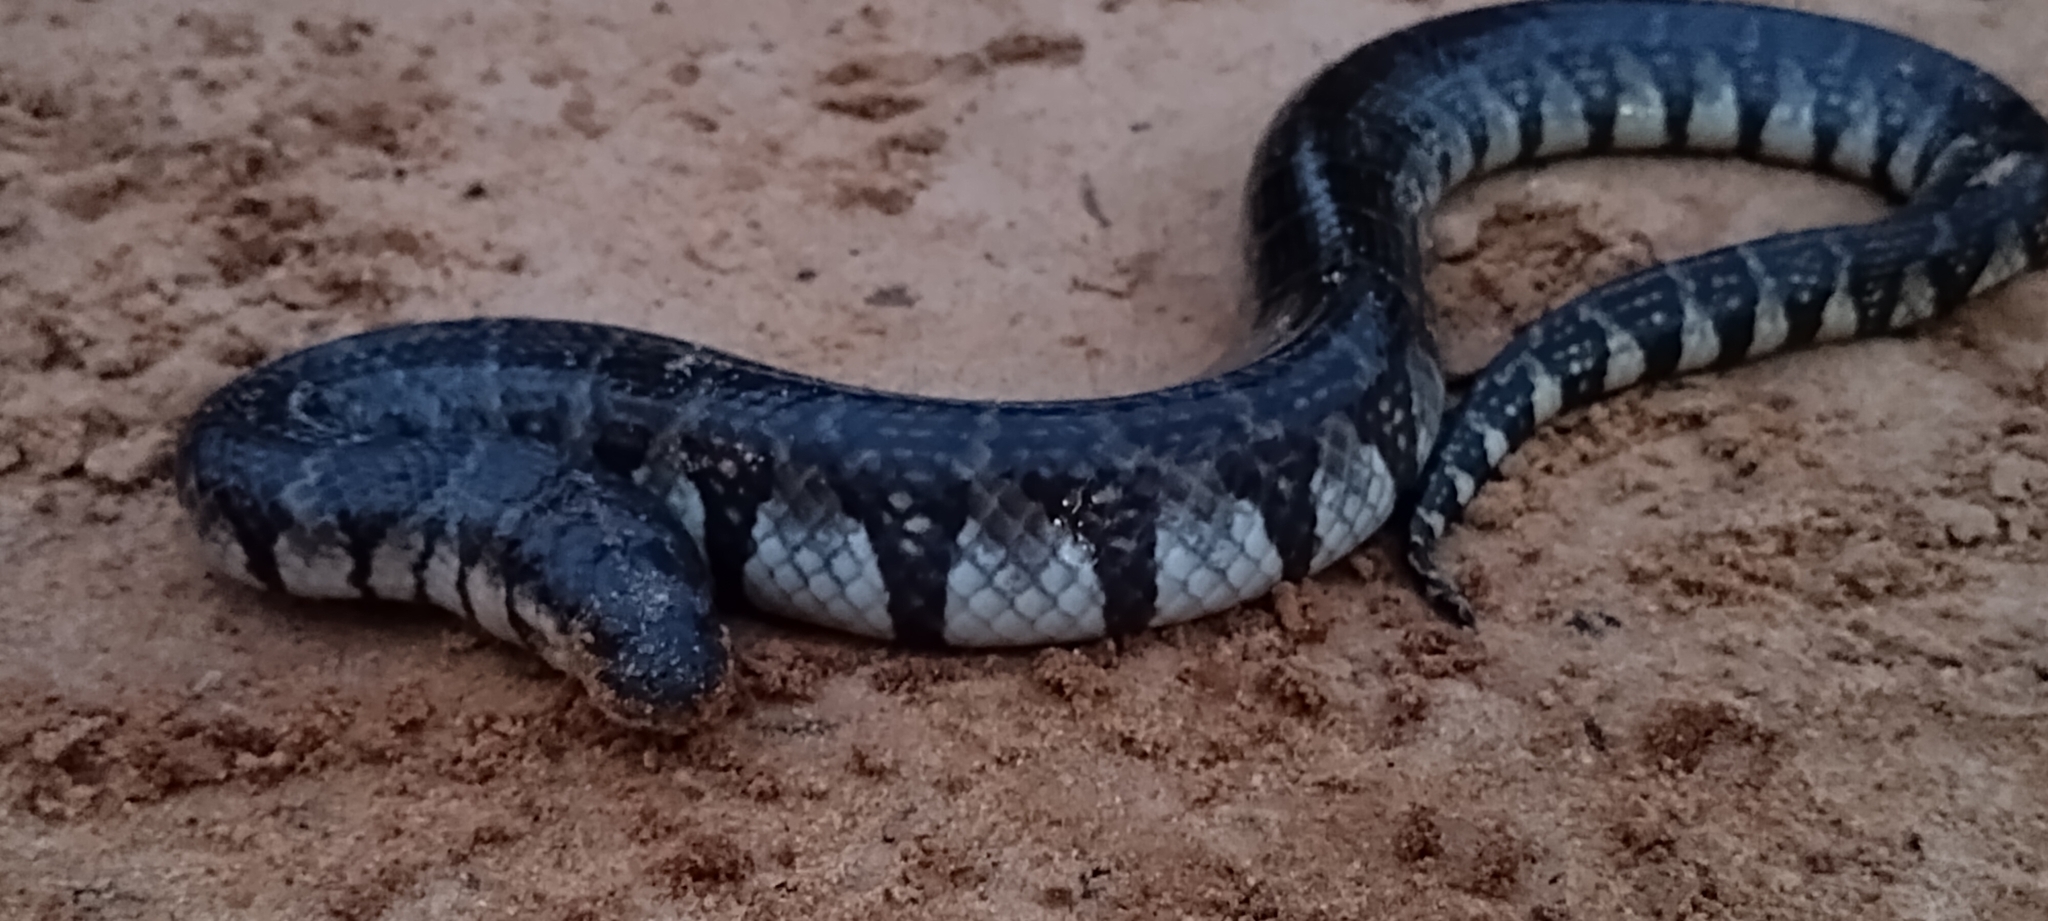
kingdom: Animalia
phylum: Chordata
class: Squamata
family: Homalopsidae
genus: Subsessor
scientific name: Subsessor bocourti
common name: Bocourt's water snake
